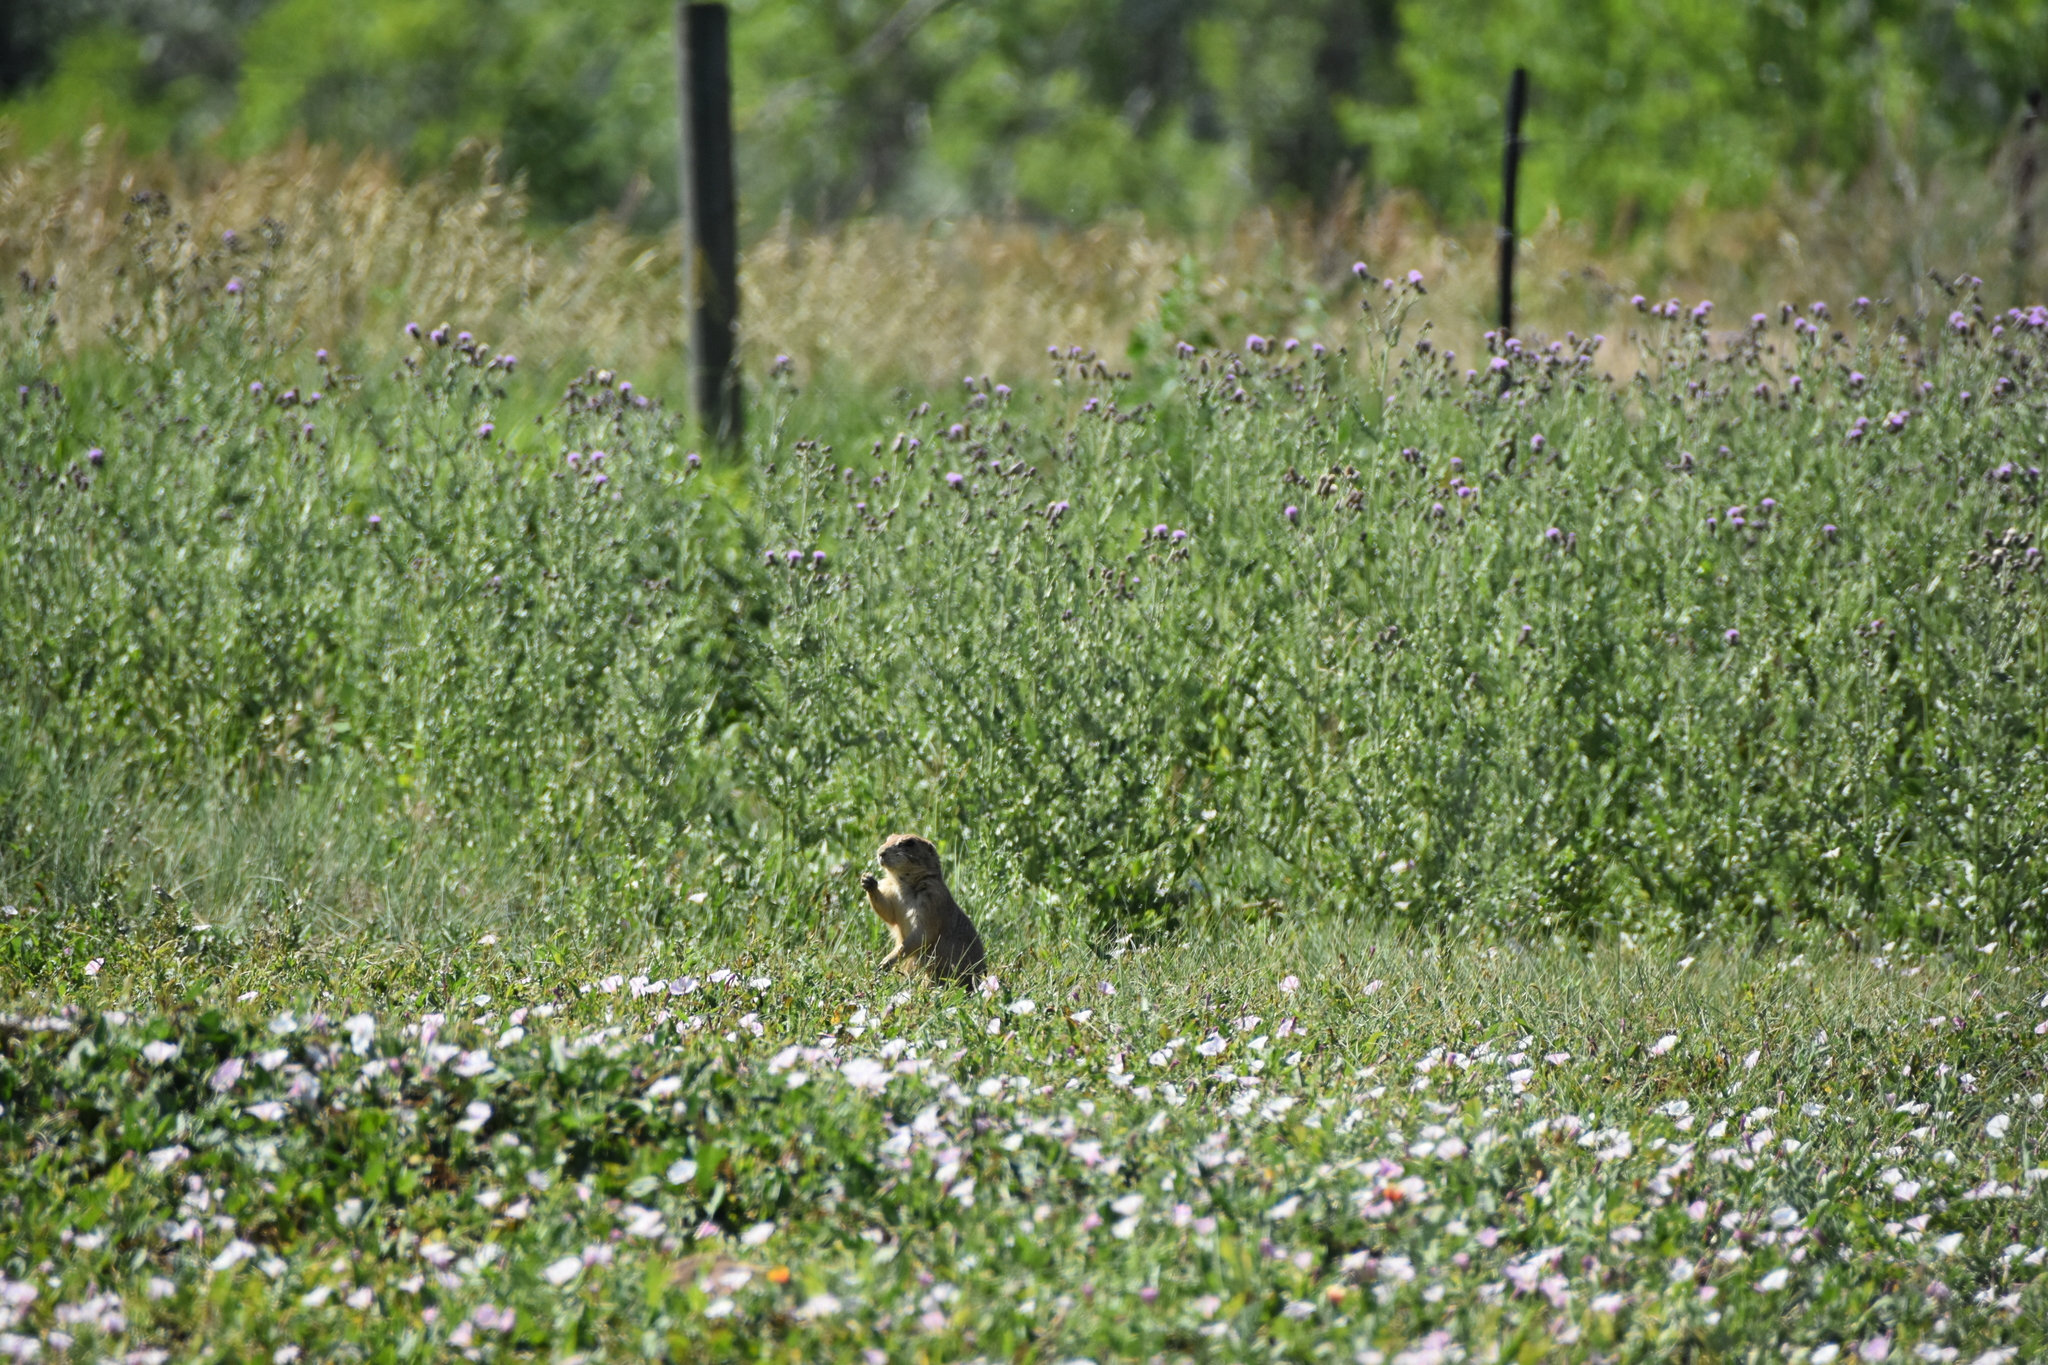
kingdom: Animalia
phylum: Chordata
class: Mammalia
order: Rodentia
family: Sciuridae
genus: Cynomys
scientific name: Cynomys ludovicianus
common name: Black-tailed prairie dog
